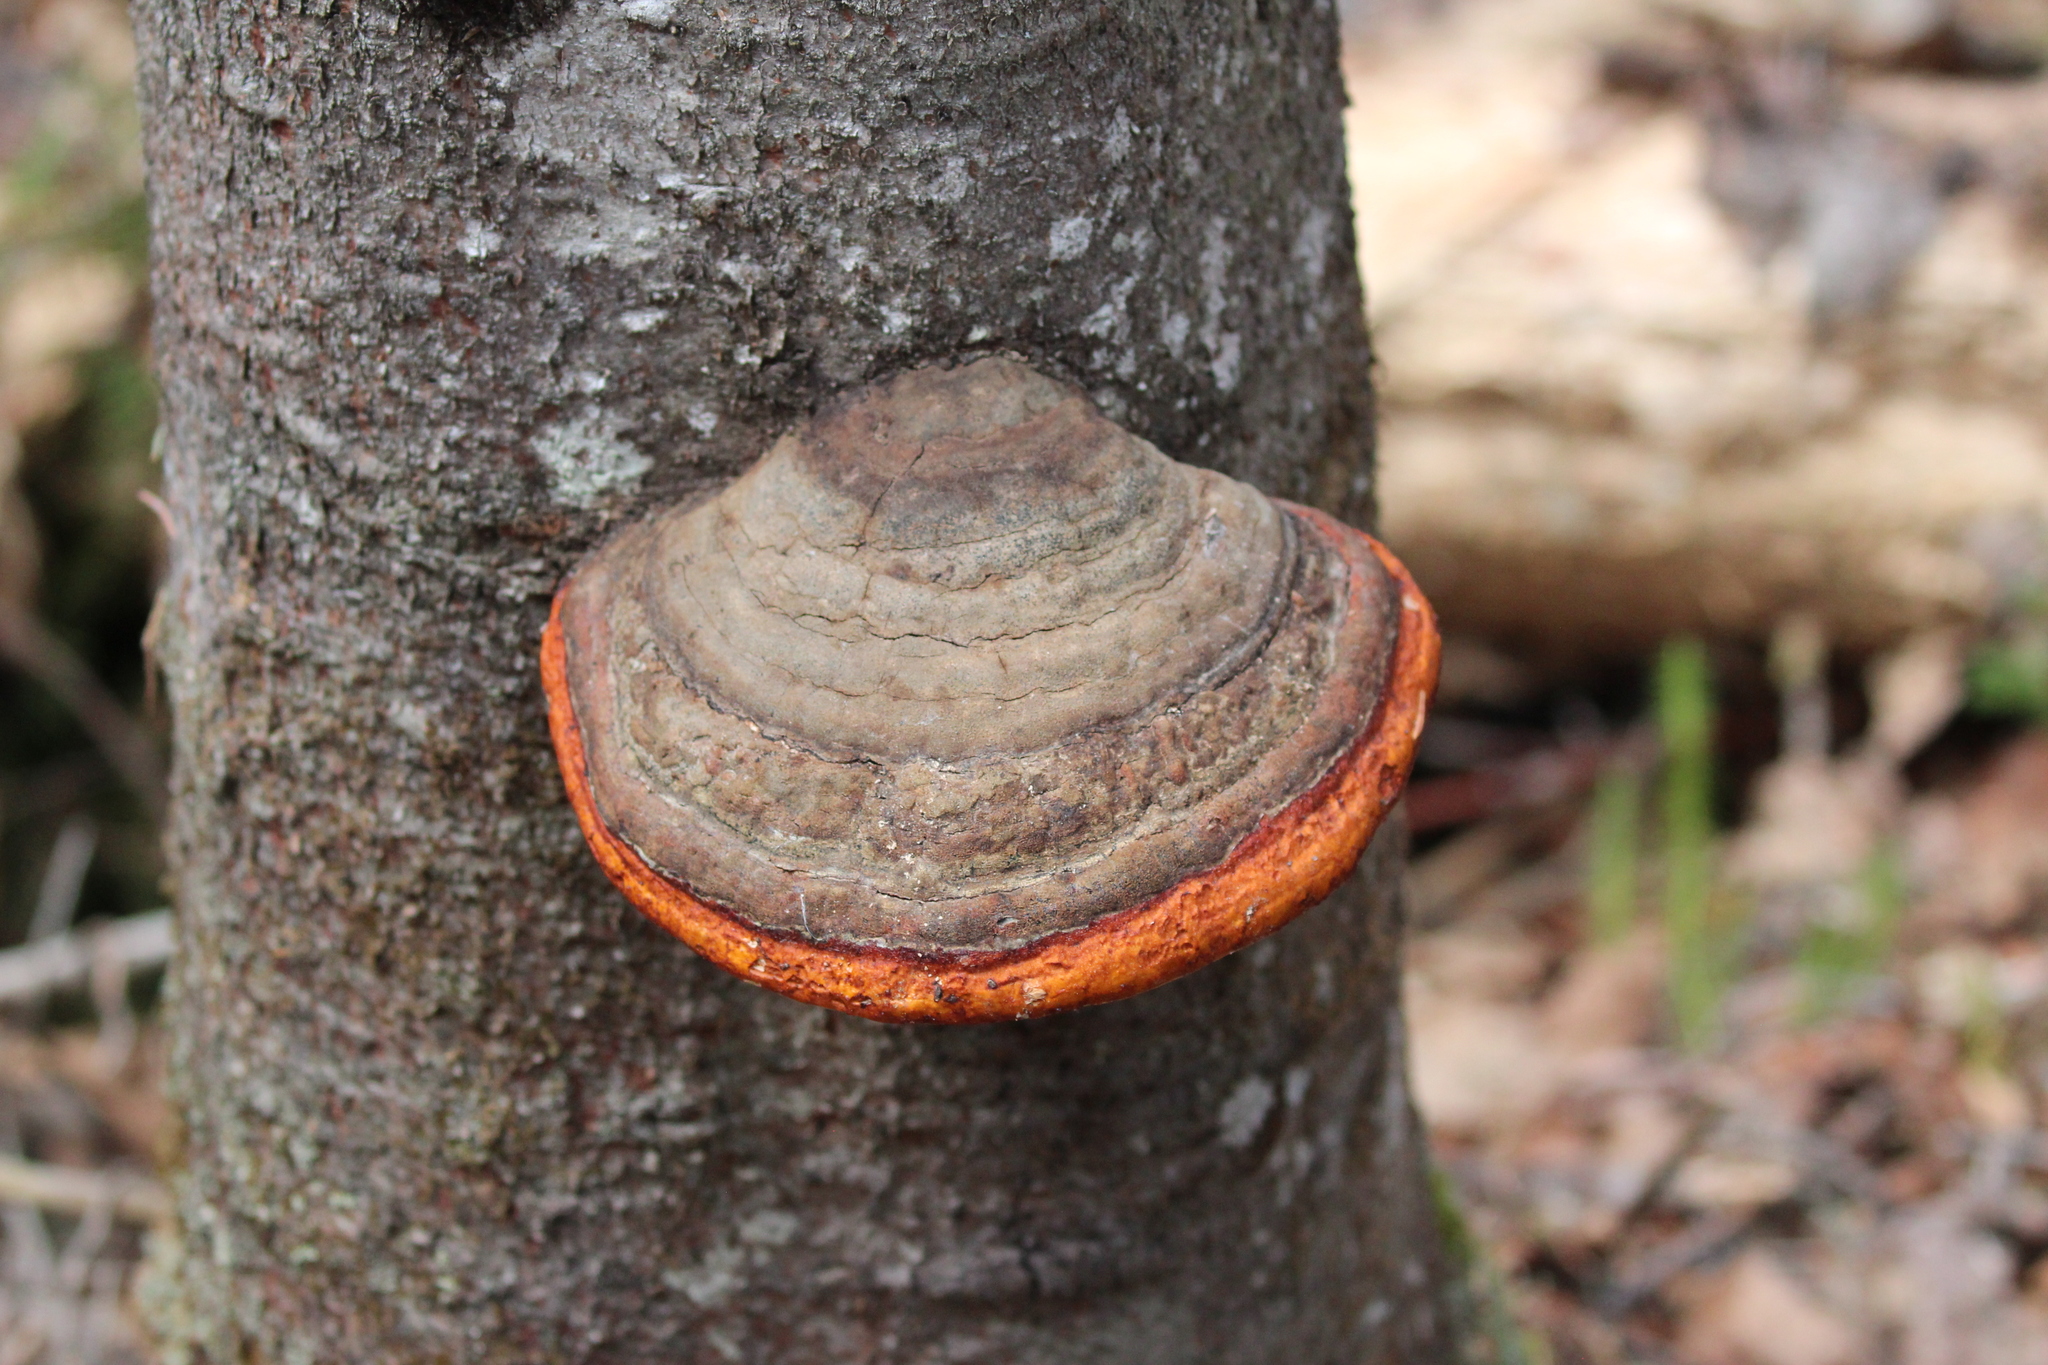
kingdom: Fungi
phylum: Basidiomycota
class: Agaricomycetes
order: Polyporales
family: Fomitopsidaceae
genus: Fomitopsis
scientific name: Fomitopsis mounceae
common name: Northern red belt
